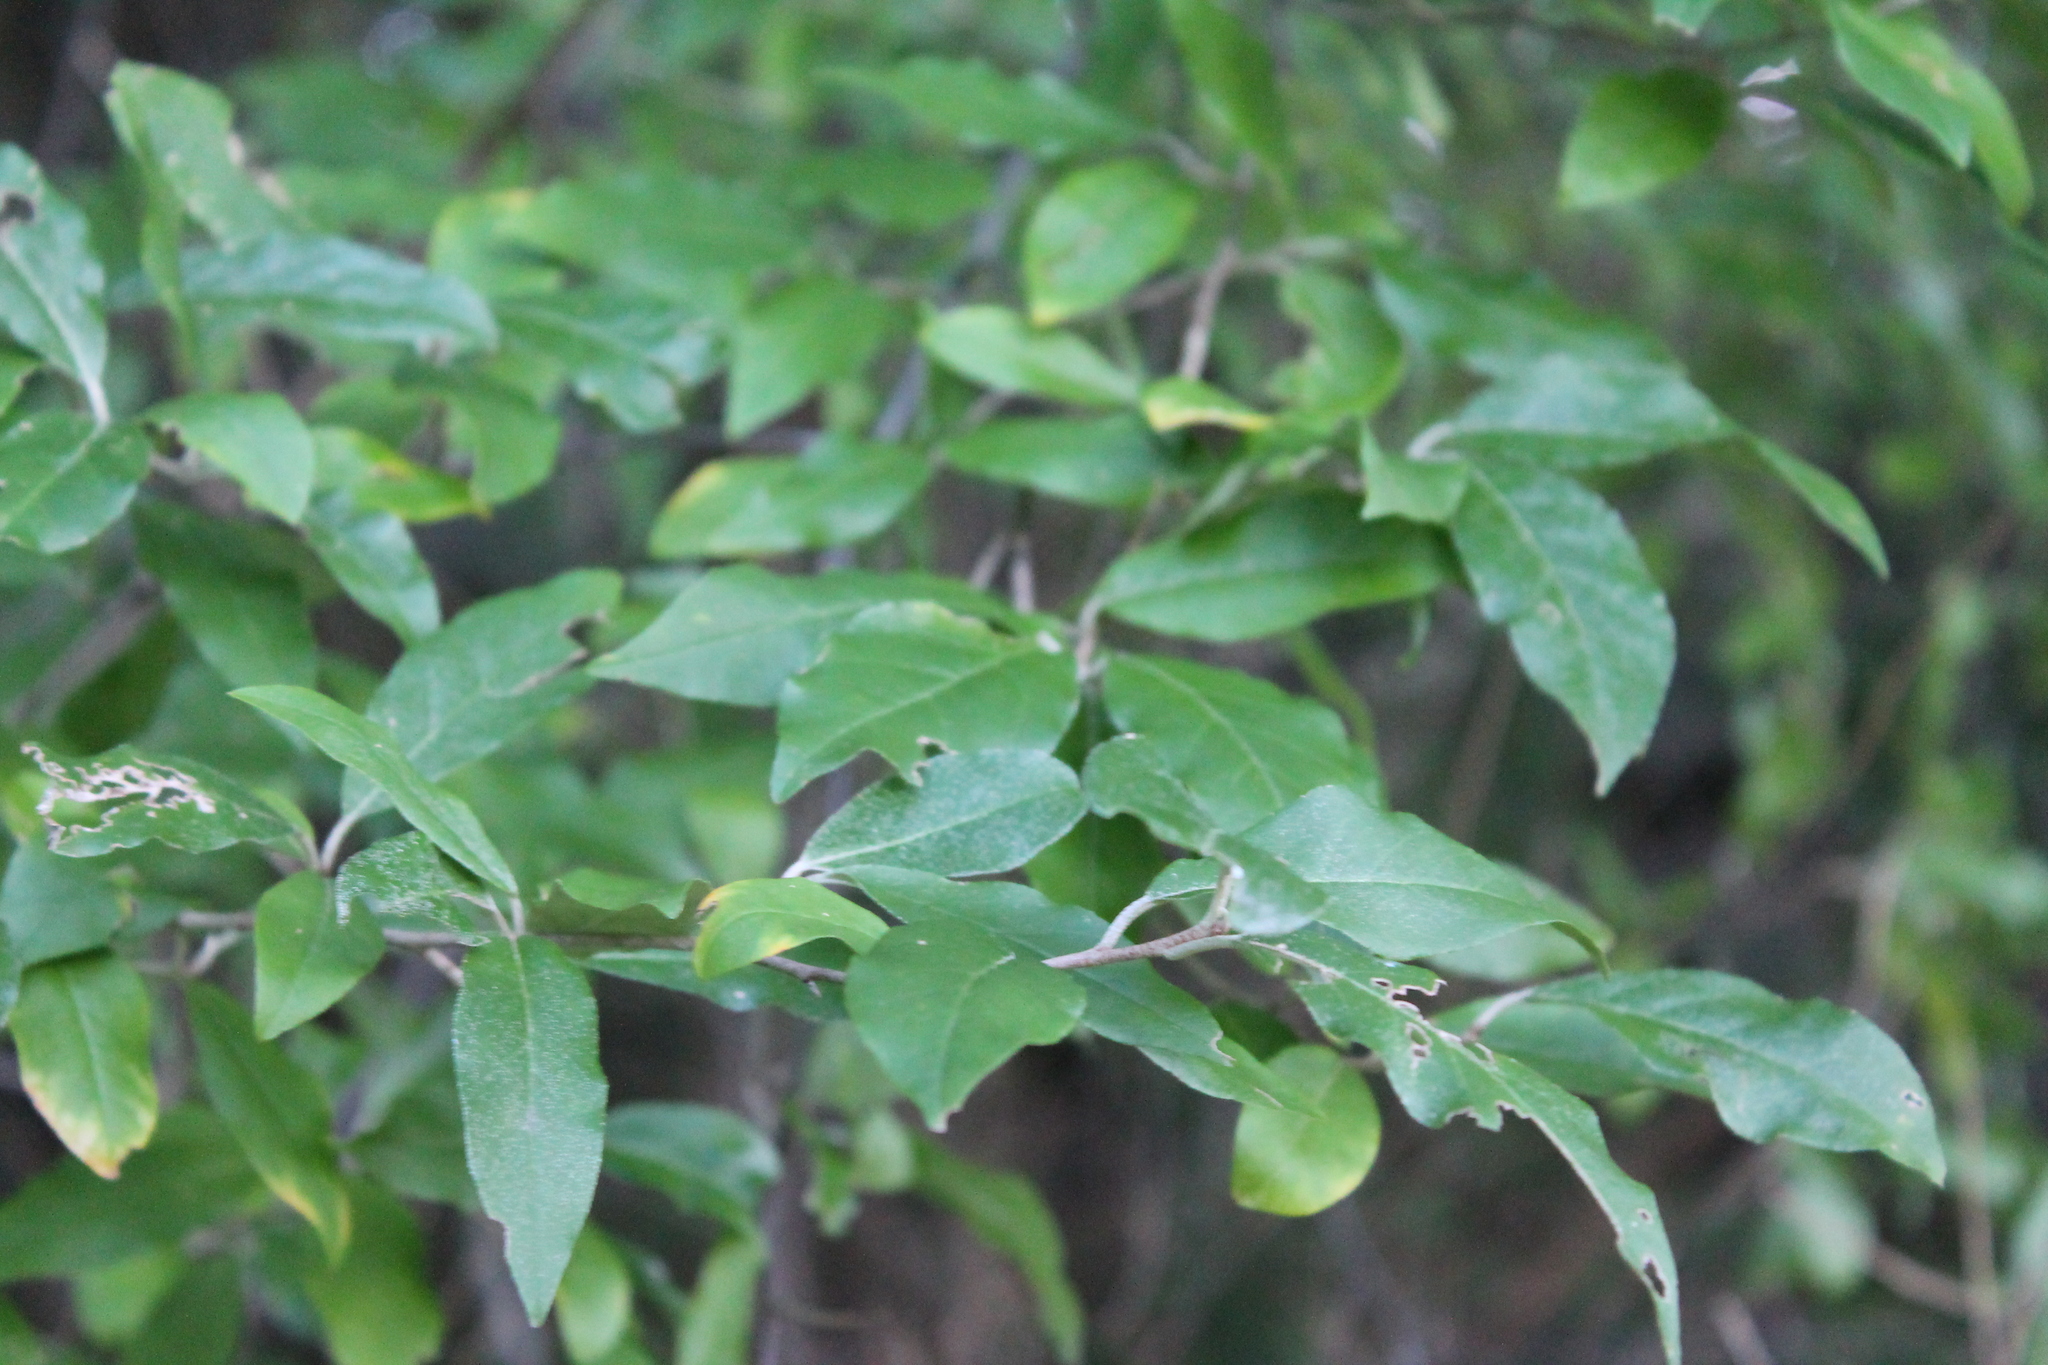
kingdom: Plantae
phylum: Tracheophyta
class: Magnoliopsida
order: Rosales
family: Elaeagnaceae
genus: Elaeagnus
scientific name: Elaeagnus umbellata
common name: Autumn olive
